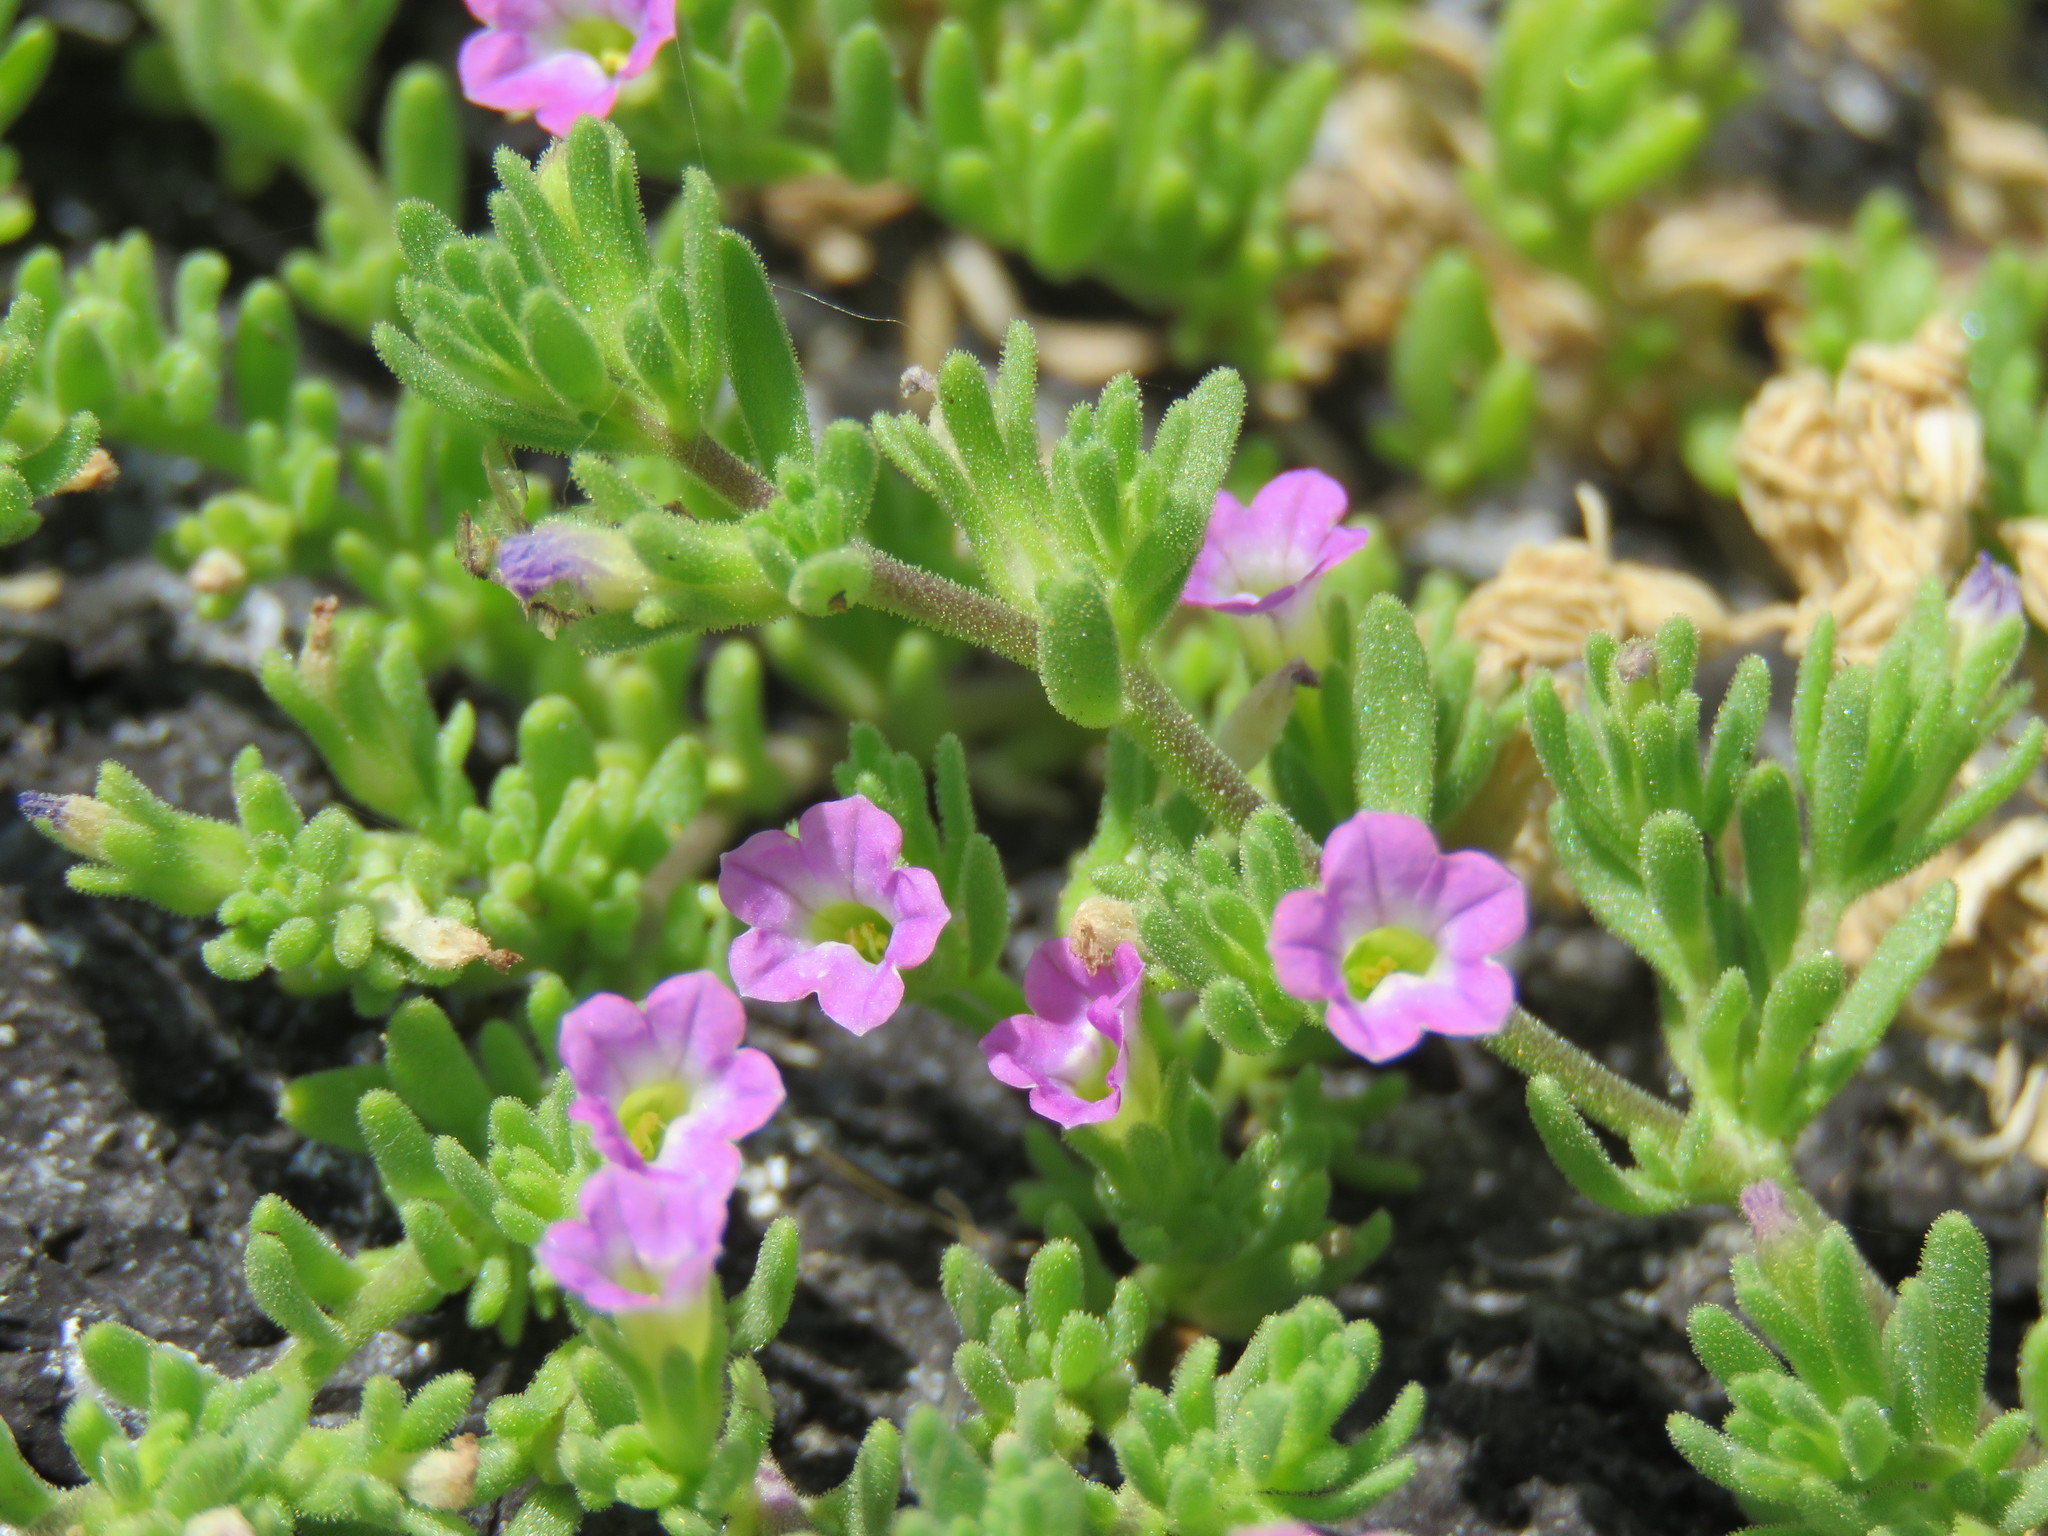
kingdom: Plantae
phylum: Tracheophyta
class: Magnoliopsida
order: Boraginales
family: Namaceae
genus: Nama
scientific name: Nama hispida
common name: Bristly nama
